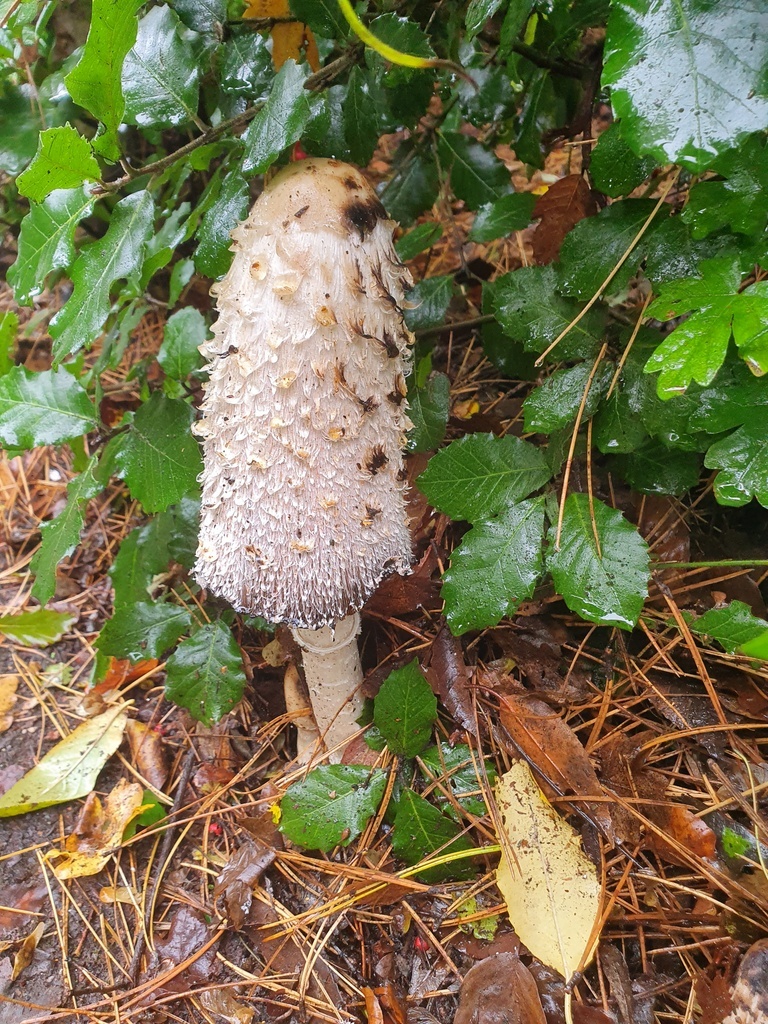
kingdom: Fungi
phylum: Basidiomycota
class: Agaricomycetes
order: Agaricales
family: Agaricaceae
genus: Coprinus
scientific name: Coprinus comatus
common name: Lawyer's wig
